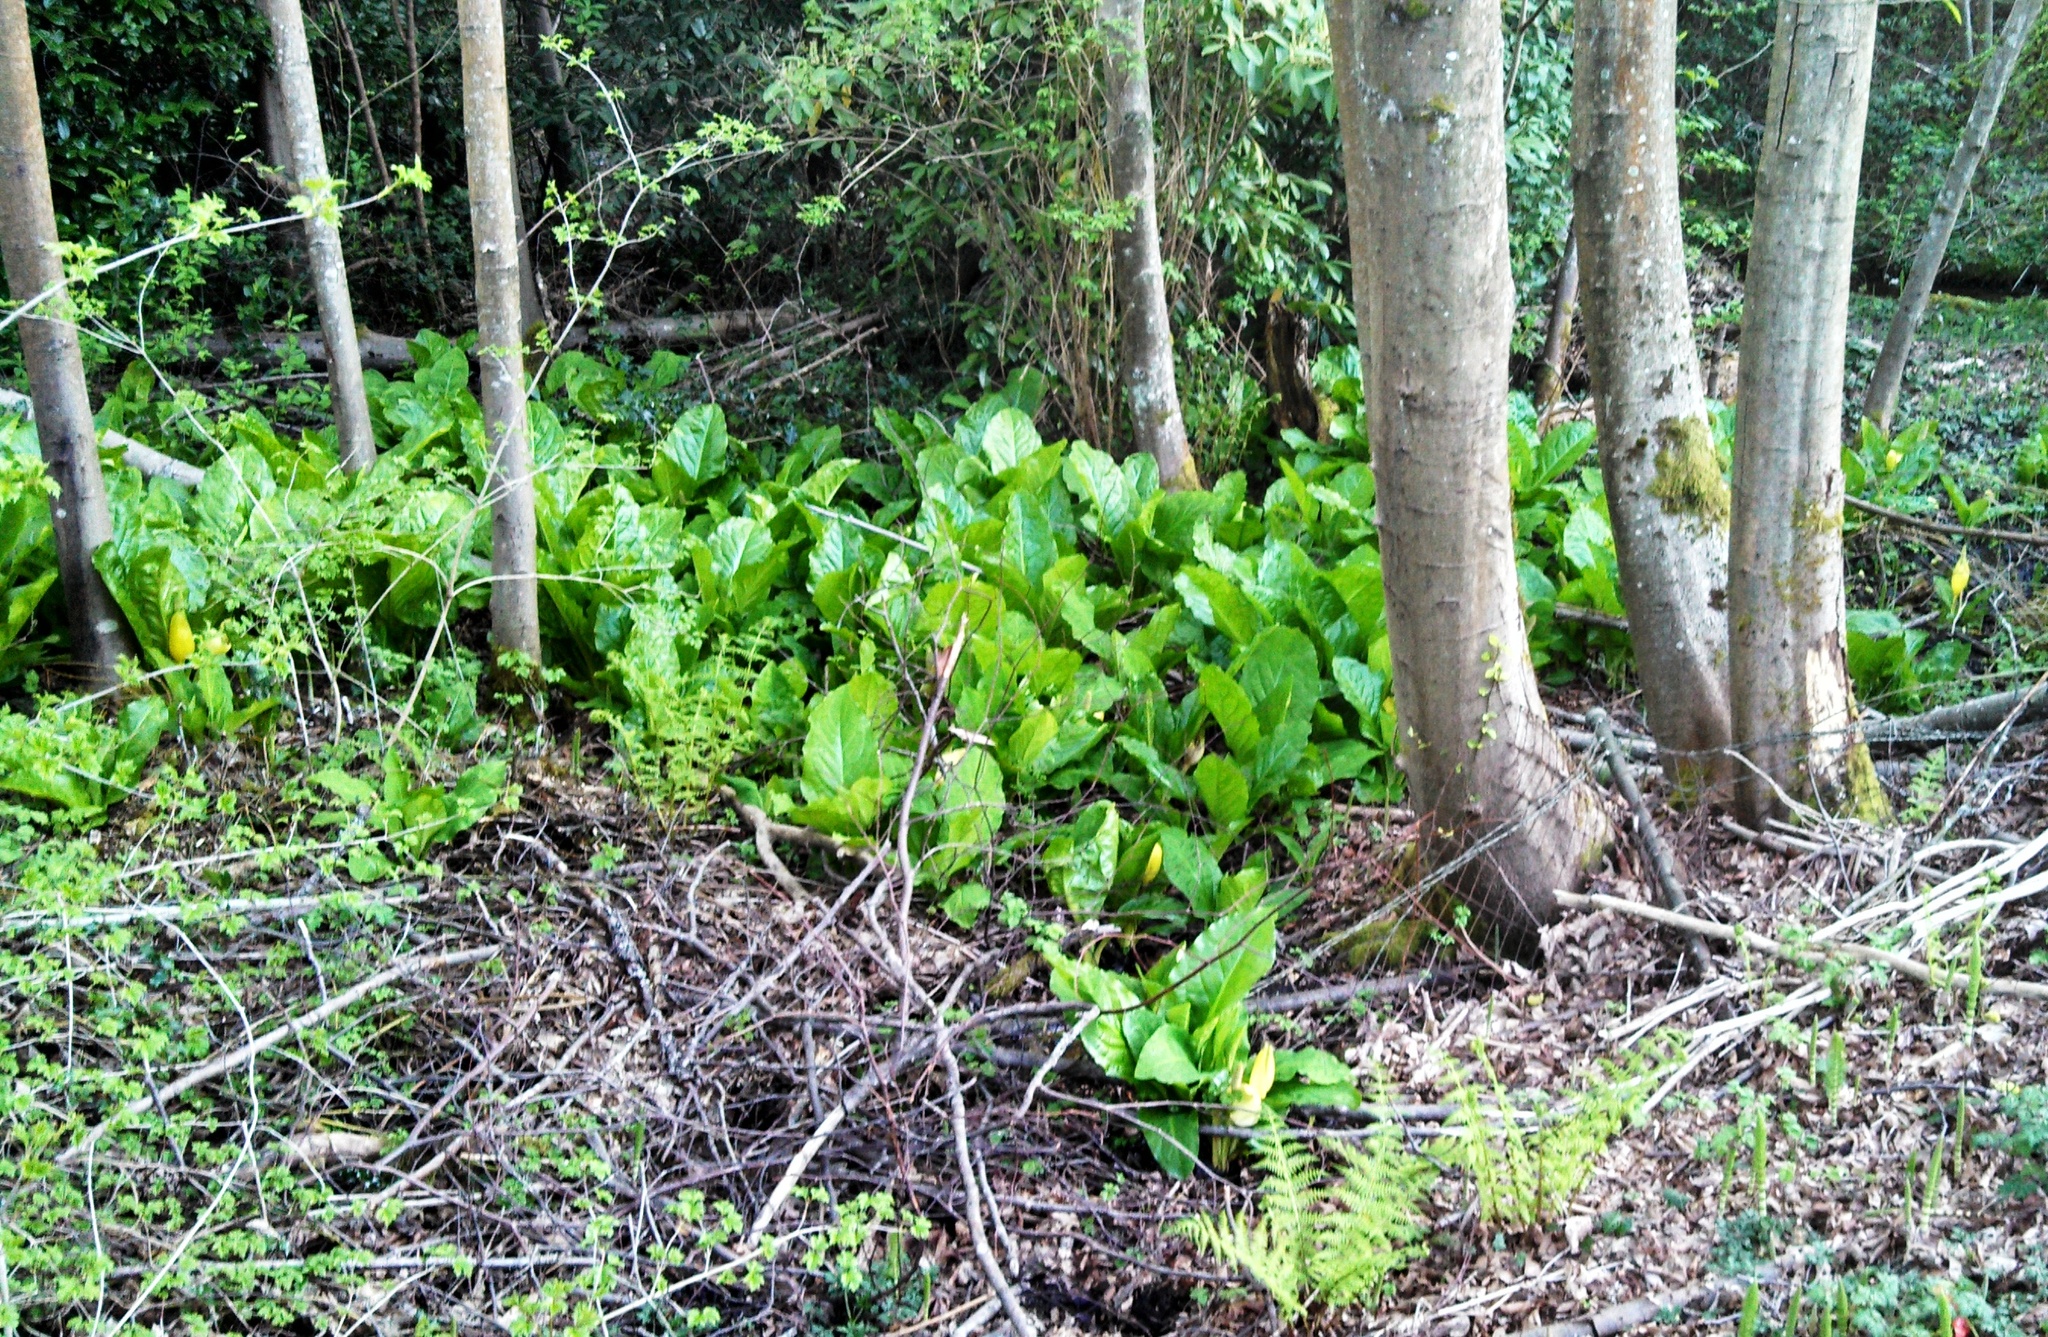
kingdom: Plantae
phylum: Tracheophyta
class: Liliopsida
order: Alismatales
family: Araceae
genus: Lysichiton
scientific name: Lysichiton americanus
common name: American skunk cabbage
